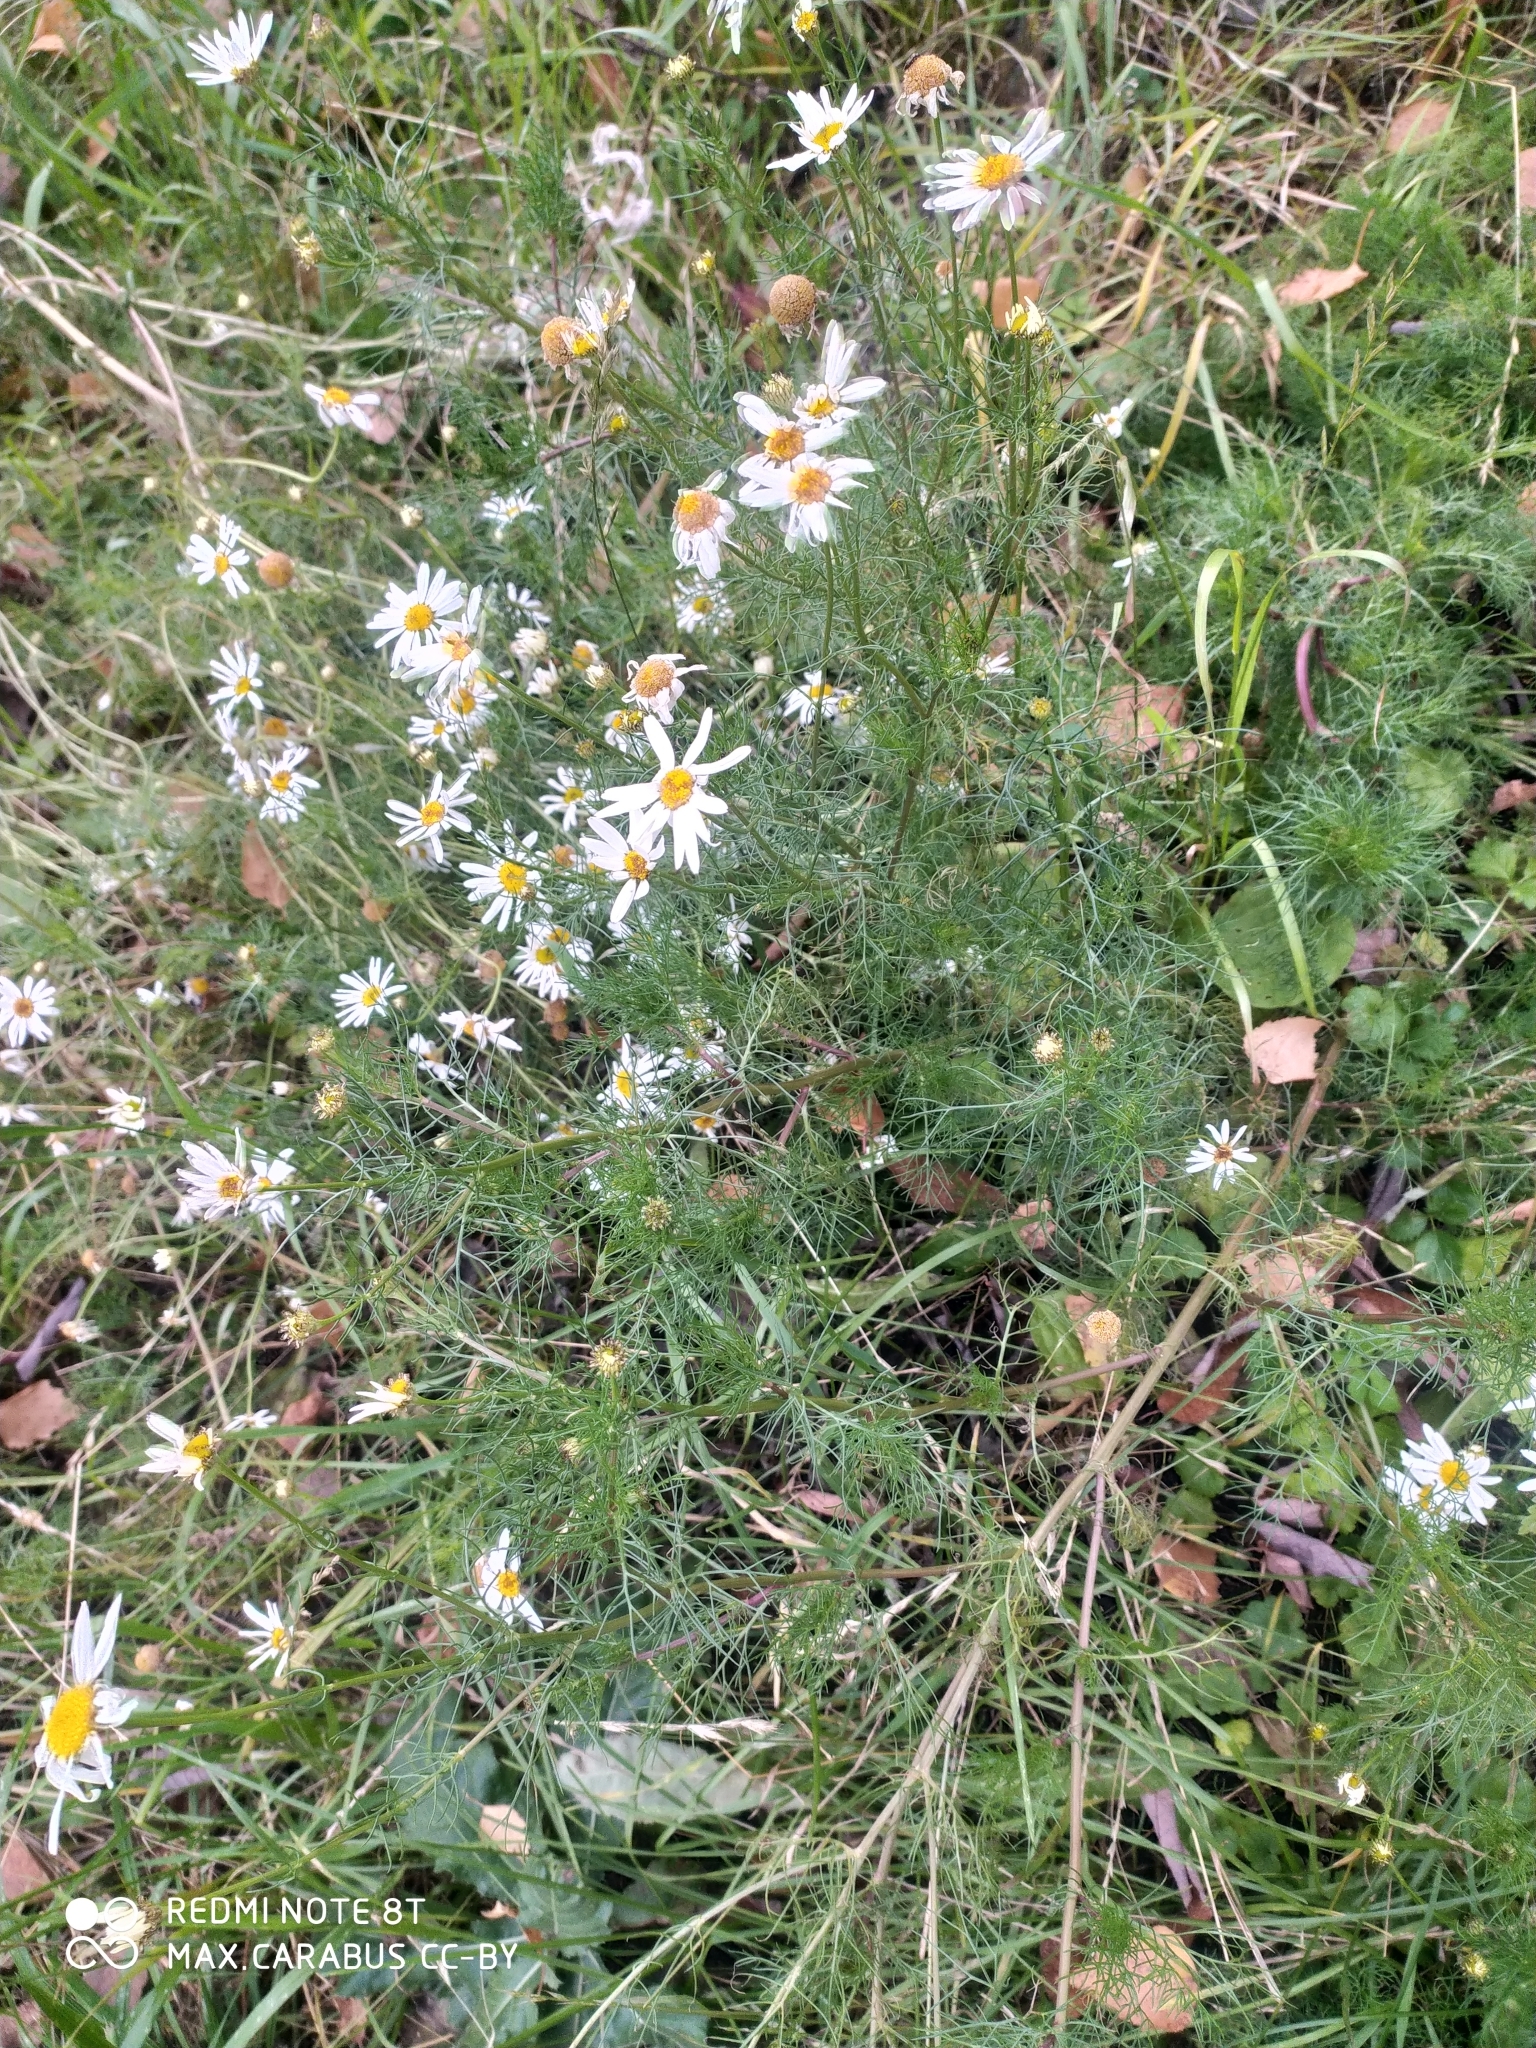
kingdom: Plantae
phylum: Tracheophyta
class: Magnoliopsida
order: Asterales
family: Asteraceae
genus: Tripleurospermum
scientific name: Tripleurospermum inodorum
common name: Scentless mayweed
